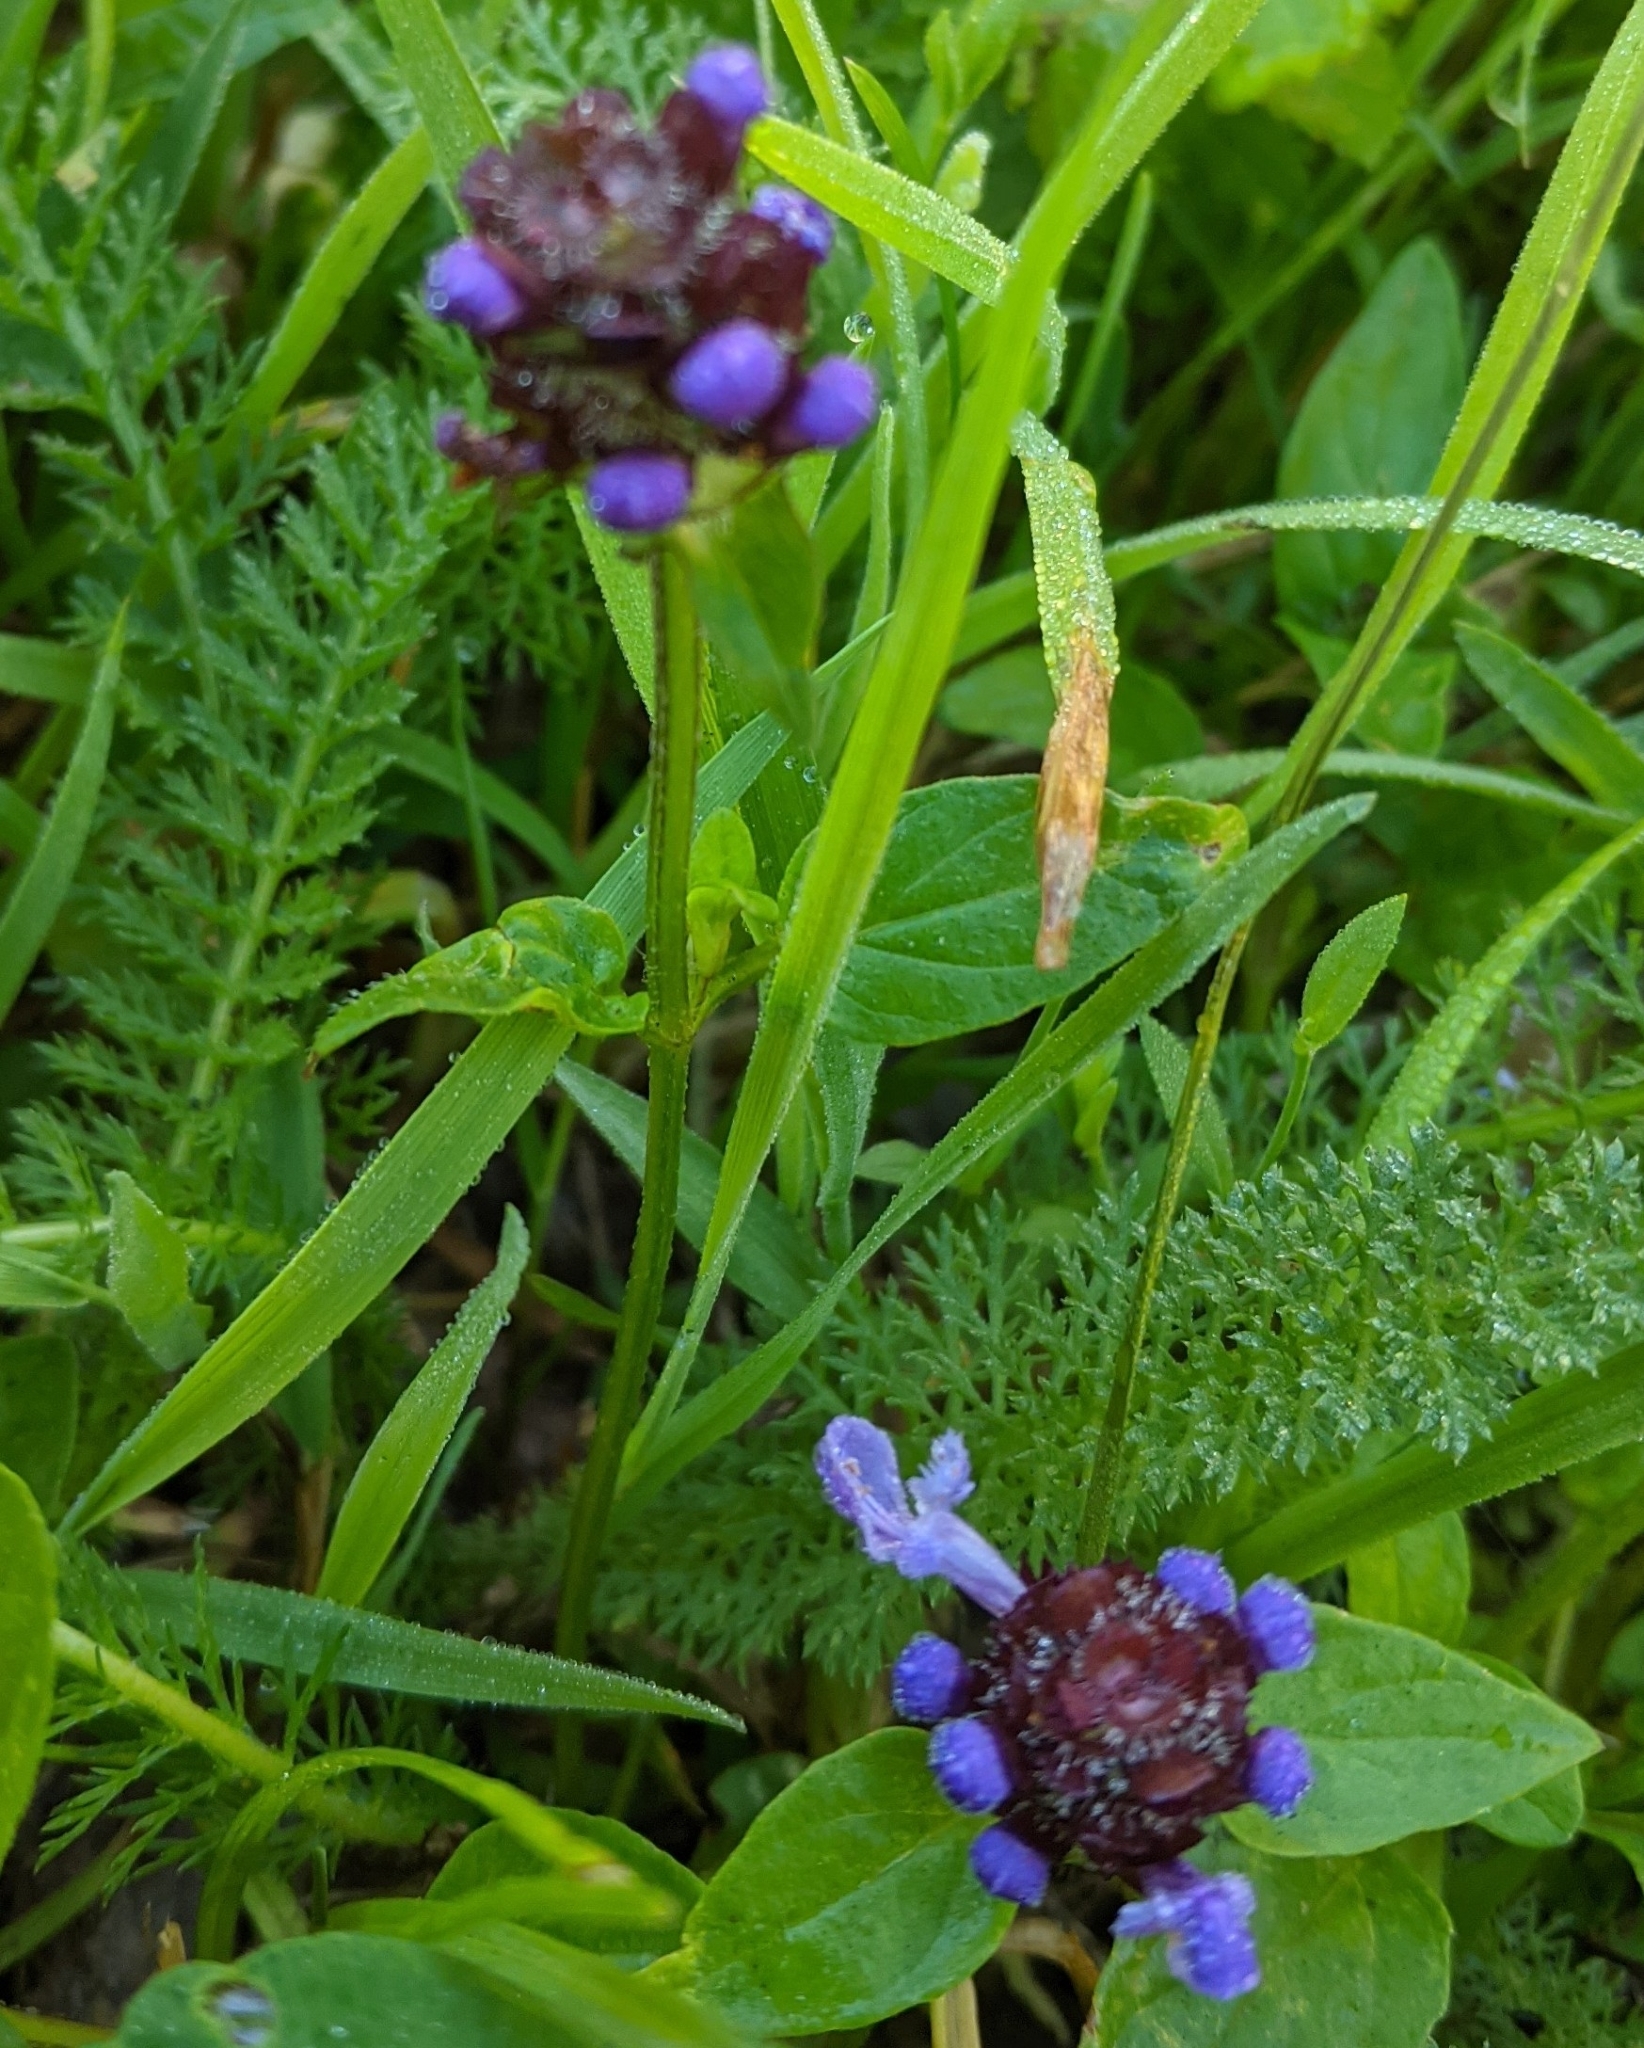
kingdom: Plantae
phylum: Tracheophyta
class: Magnoliopsida
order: Lamiales
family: Lamiaceae
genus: Prunella
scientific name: Prunella vulgaris
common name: Heal-all
